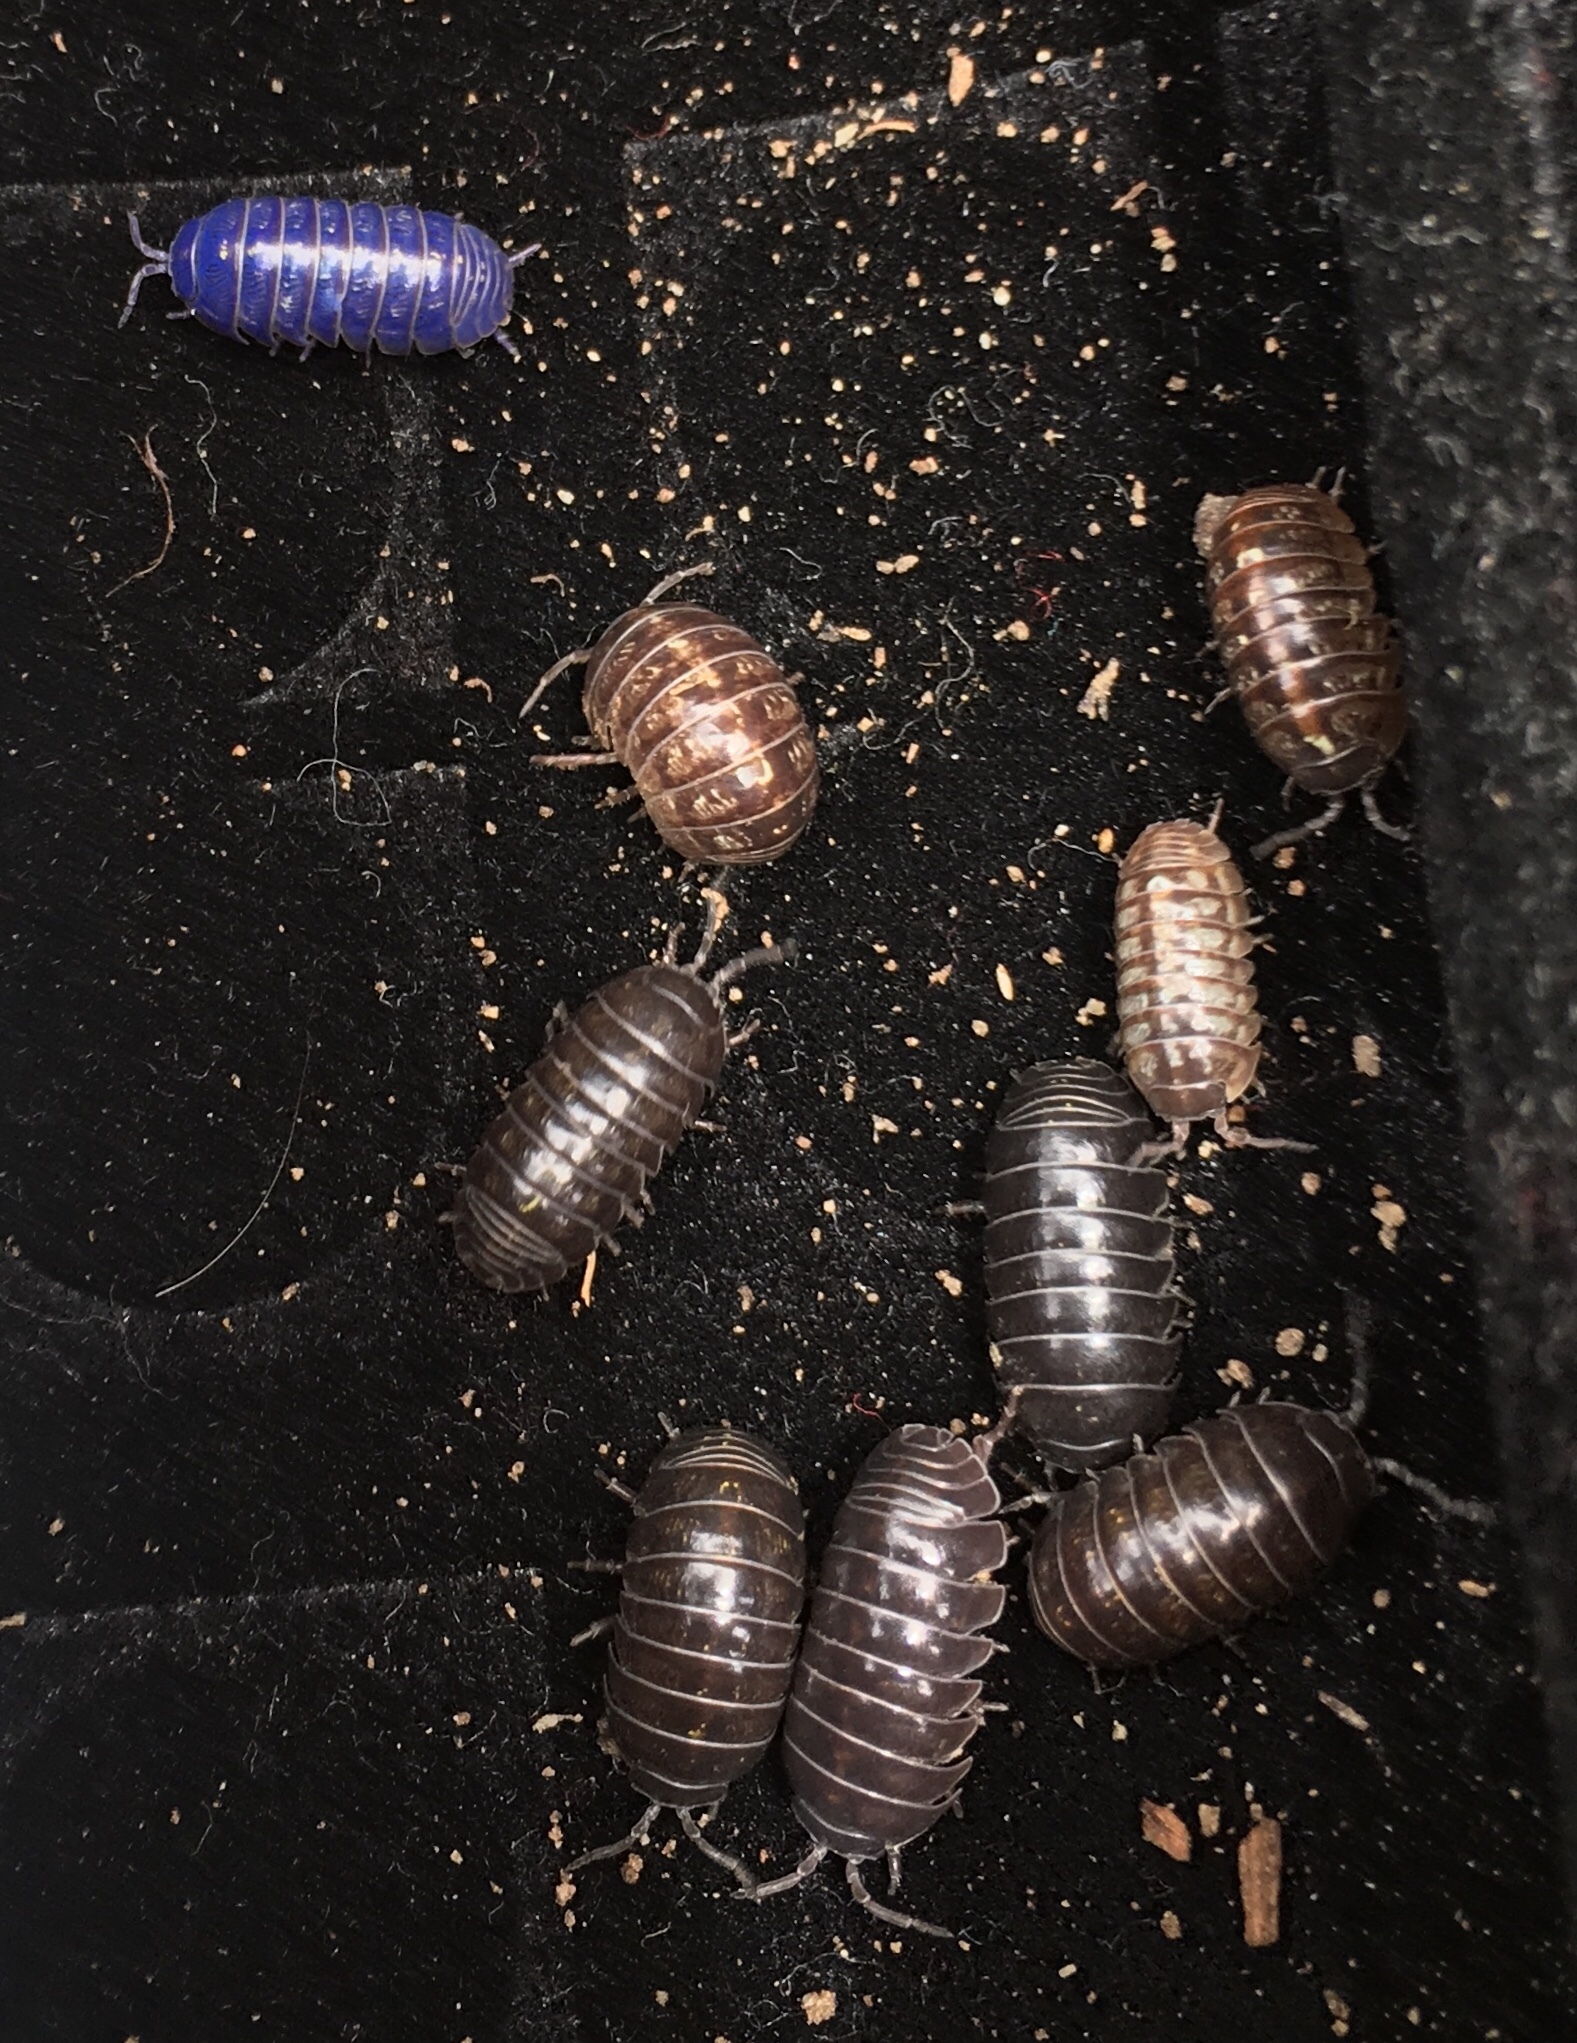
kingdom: Animalia
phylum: Arthropoda
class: Malacostraca
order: Isopoda
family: Armadillidiidae
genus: Armadillidium
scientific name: Armadillidium vulgare
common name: Common pill woodlouse
